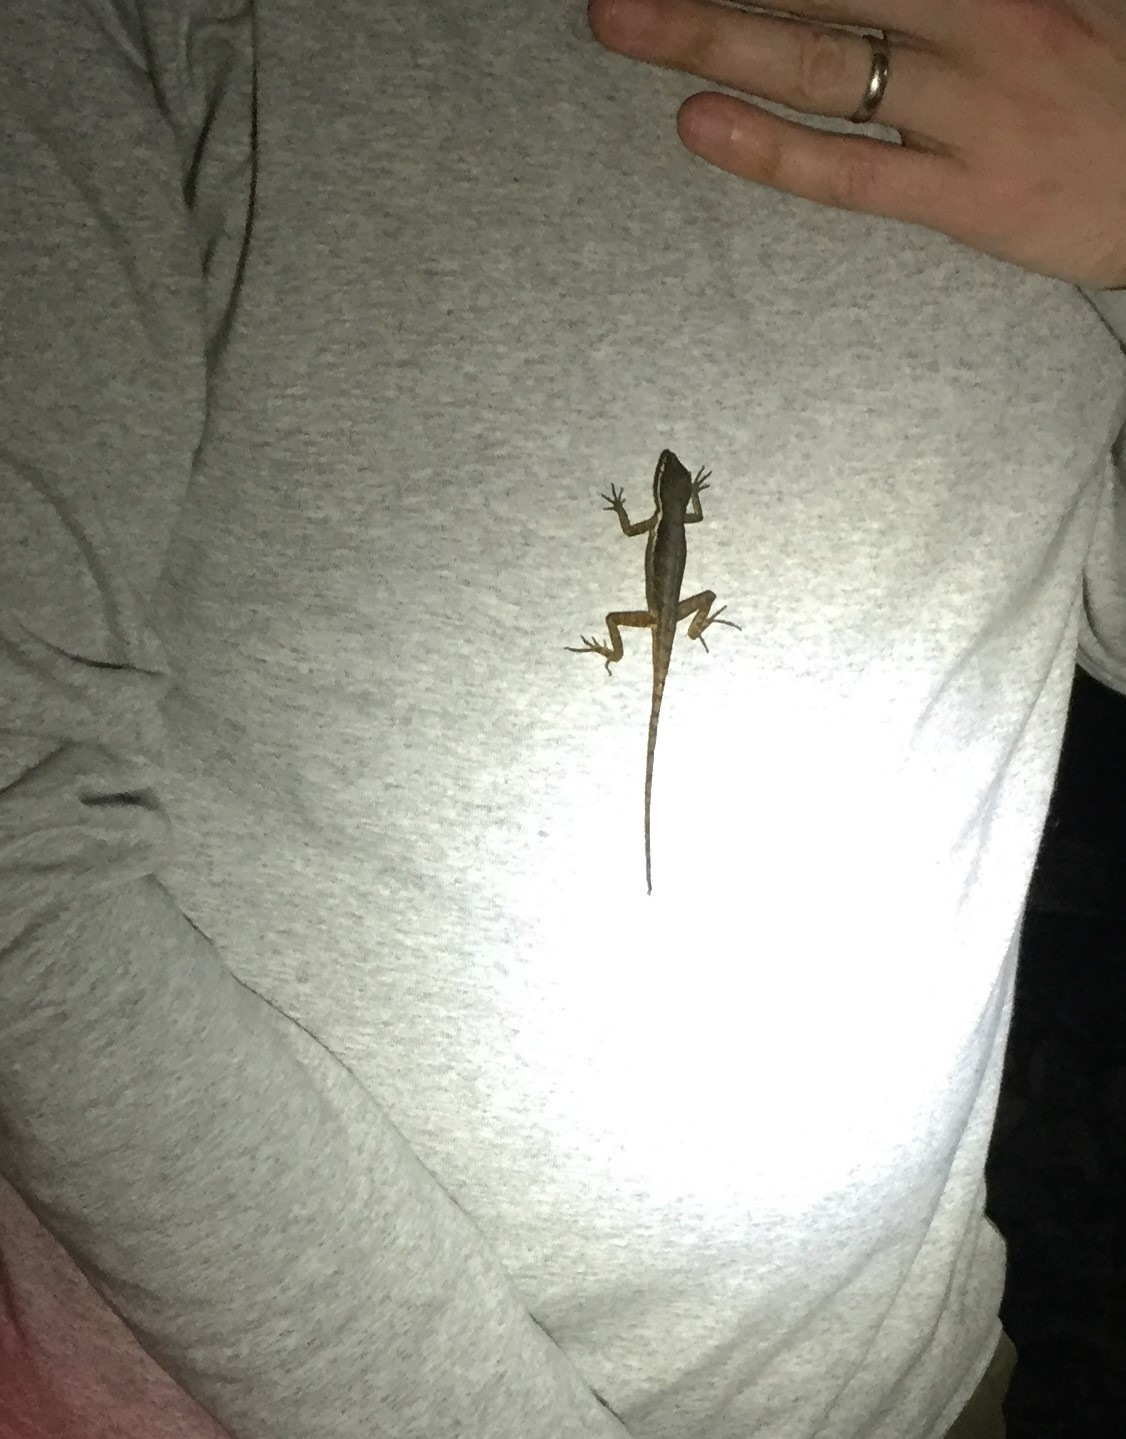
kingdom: Animalia
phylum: Chordata
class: Squamata
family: Corytophanidae
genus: Basiliscus
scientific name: Basiliscus vittatus
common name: Brown basilisk
